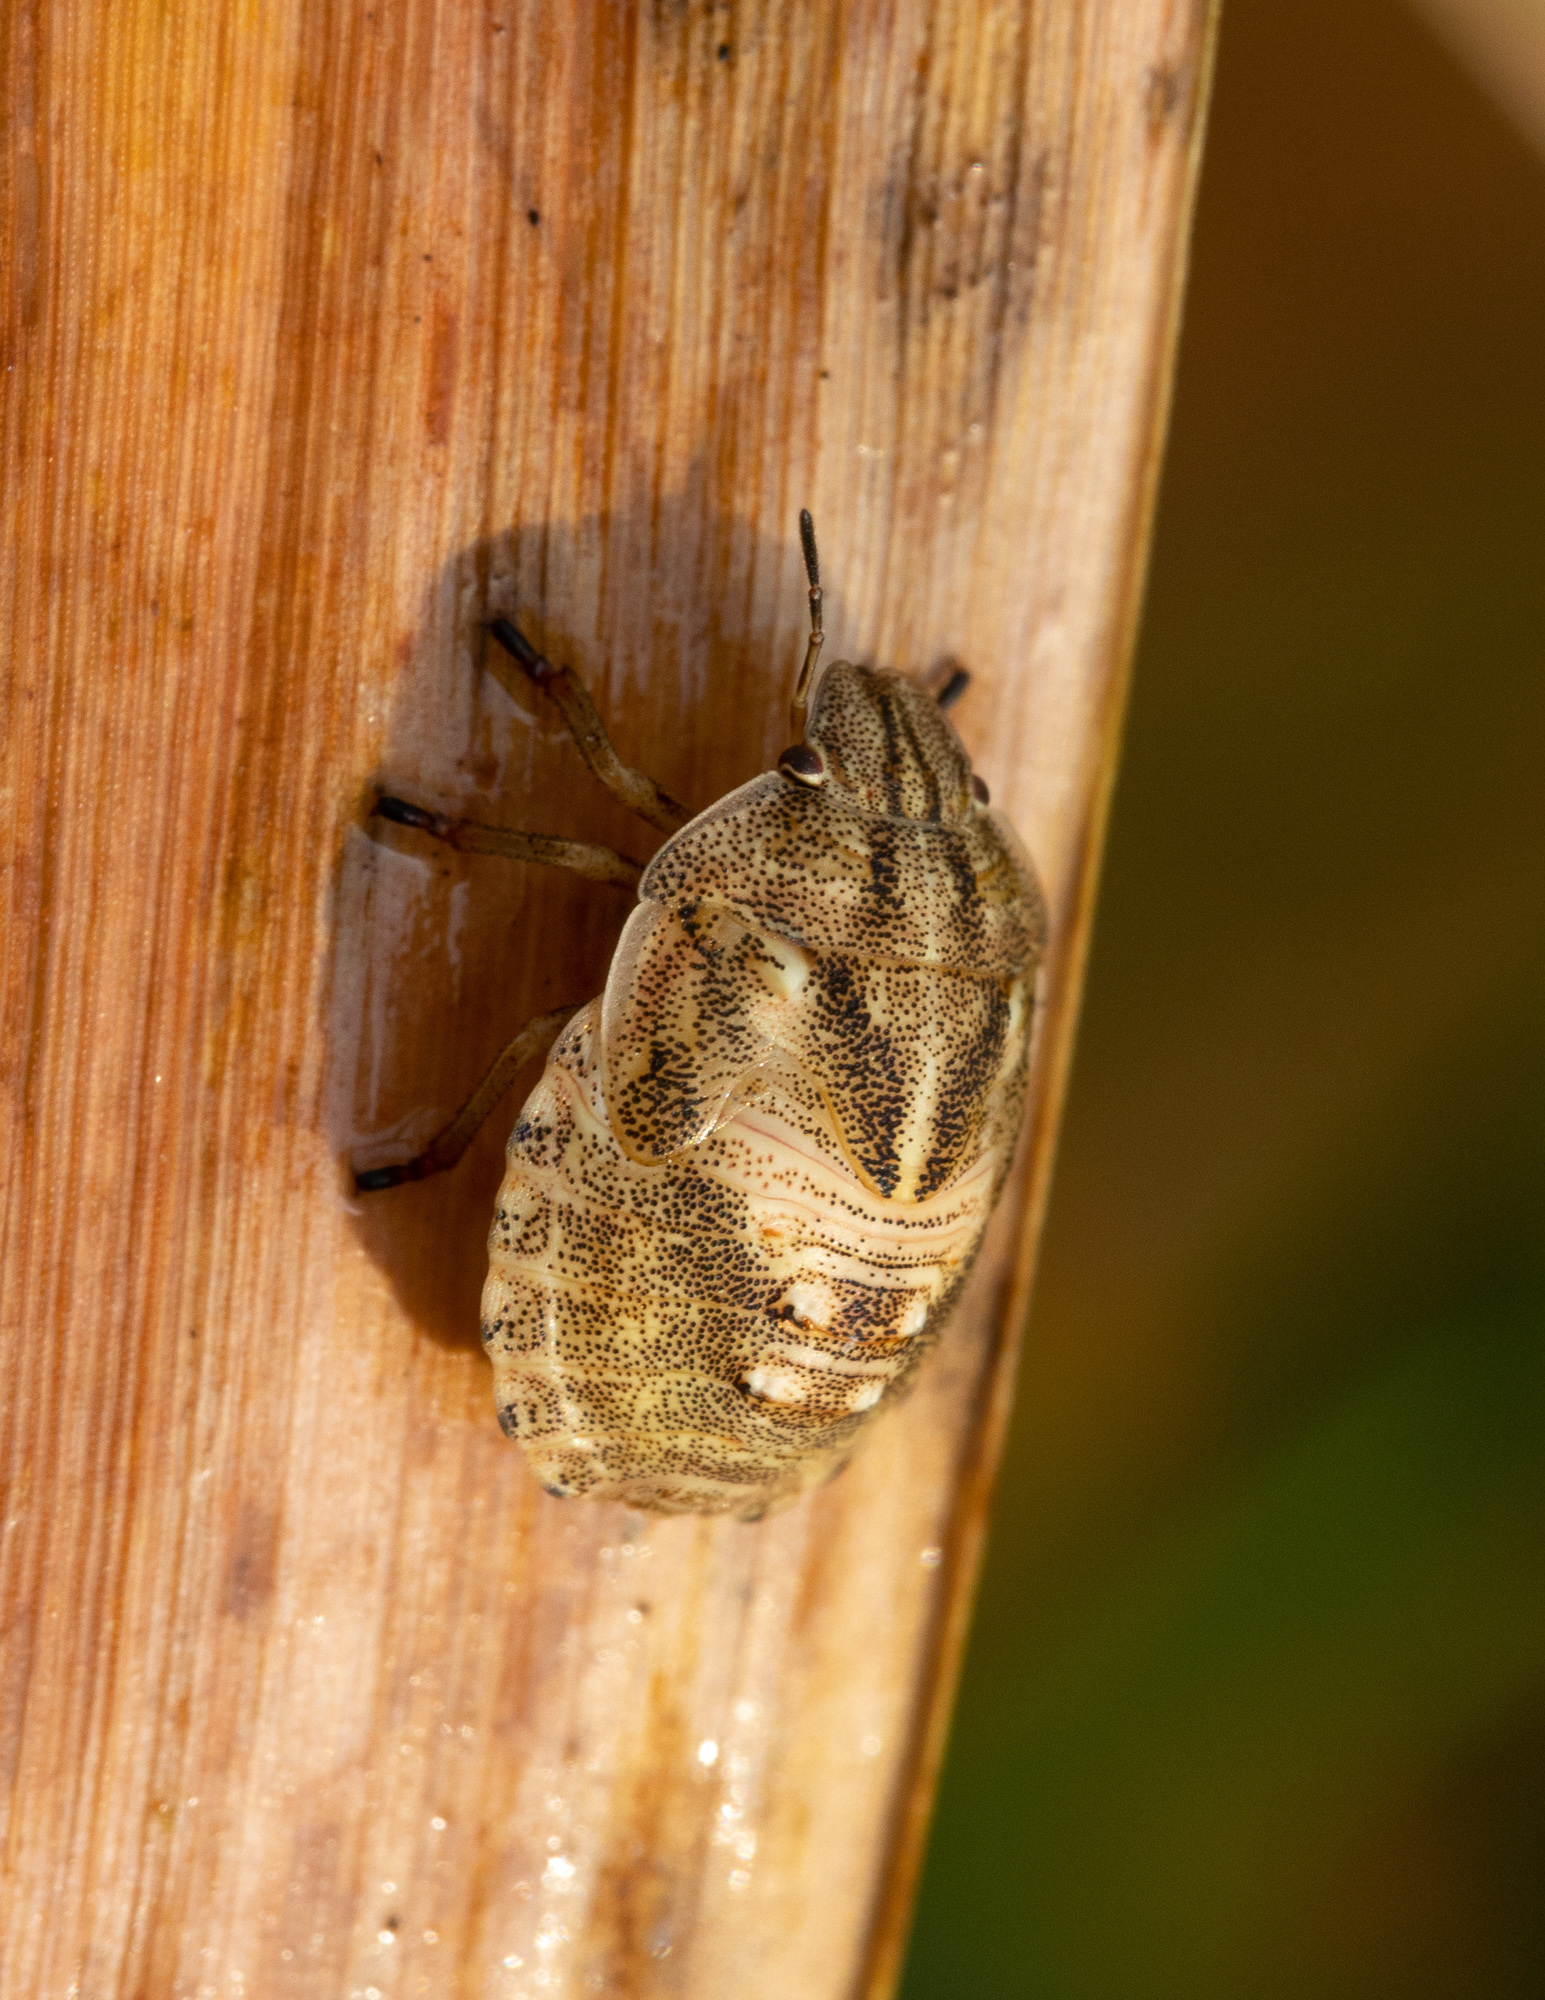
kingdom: Animalia
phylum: Arthropoda
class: Insecta
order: Hemiptera
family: Scutelleridae
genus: Eurygaster
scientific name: Eurygaster testudinaria
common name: Tortoise bug
